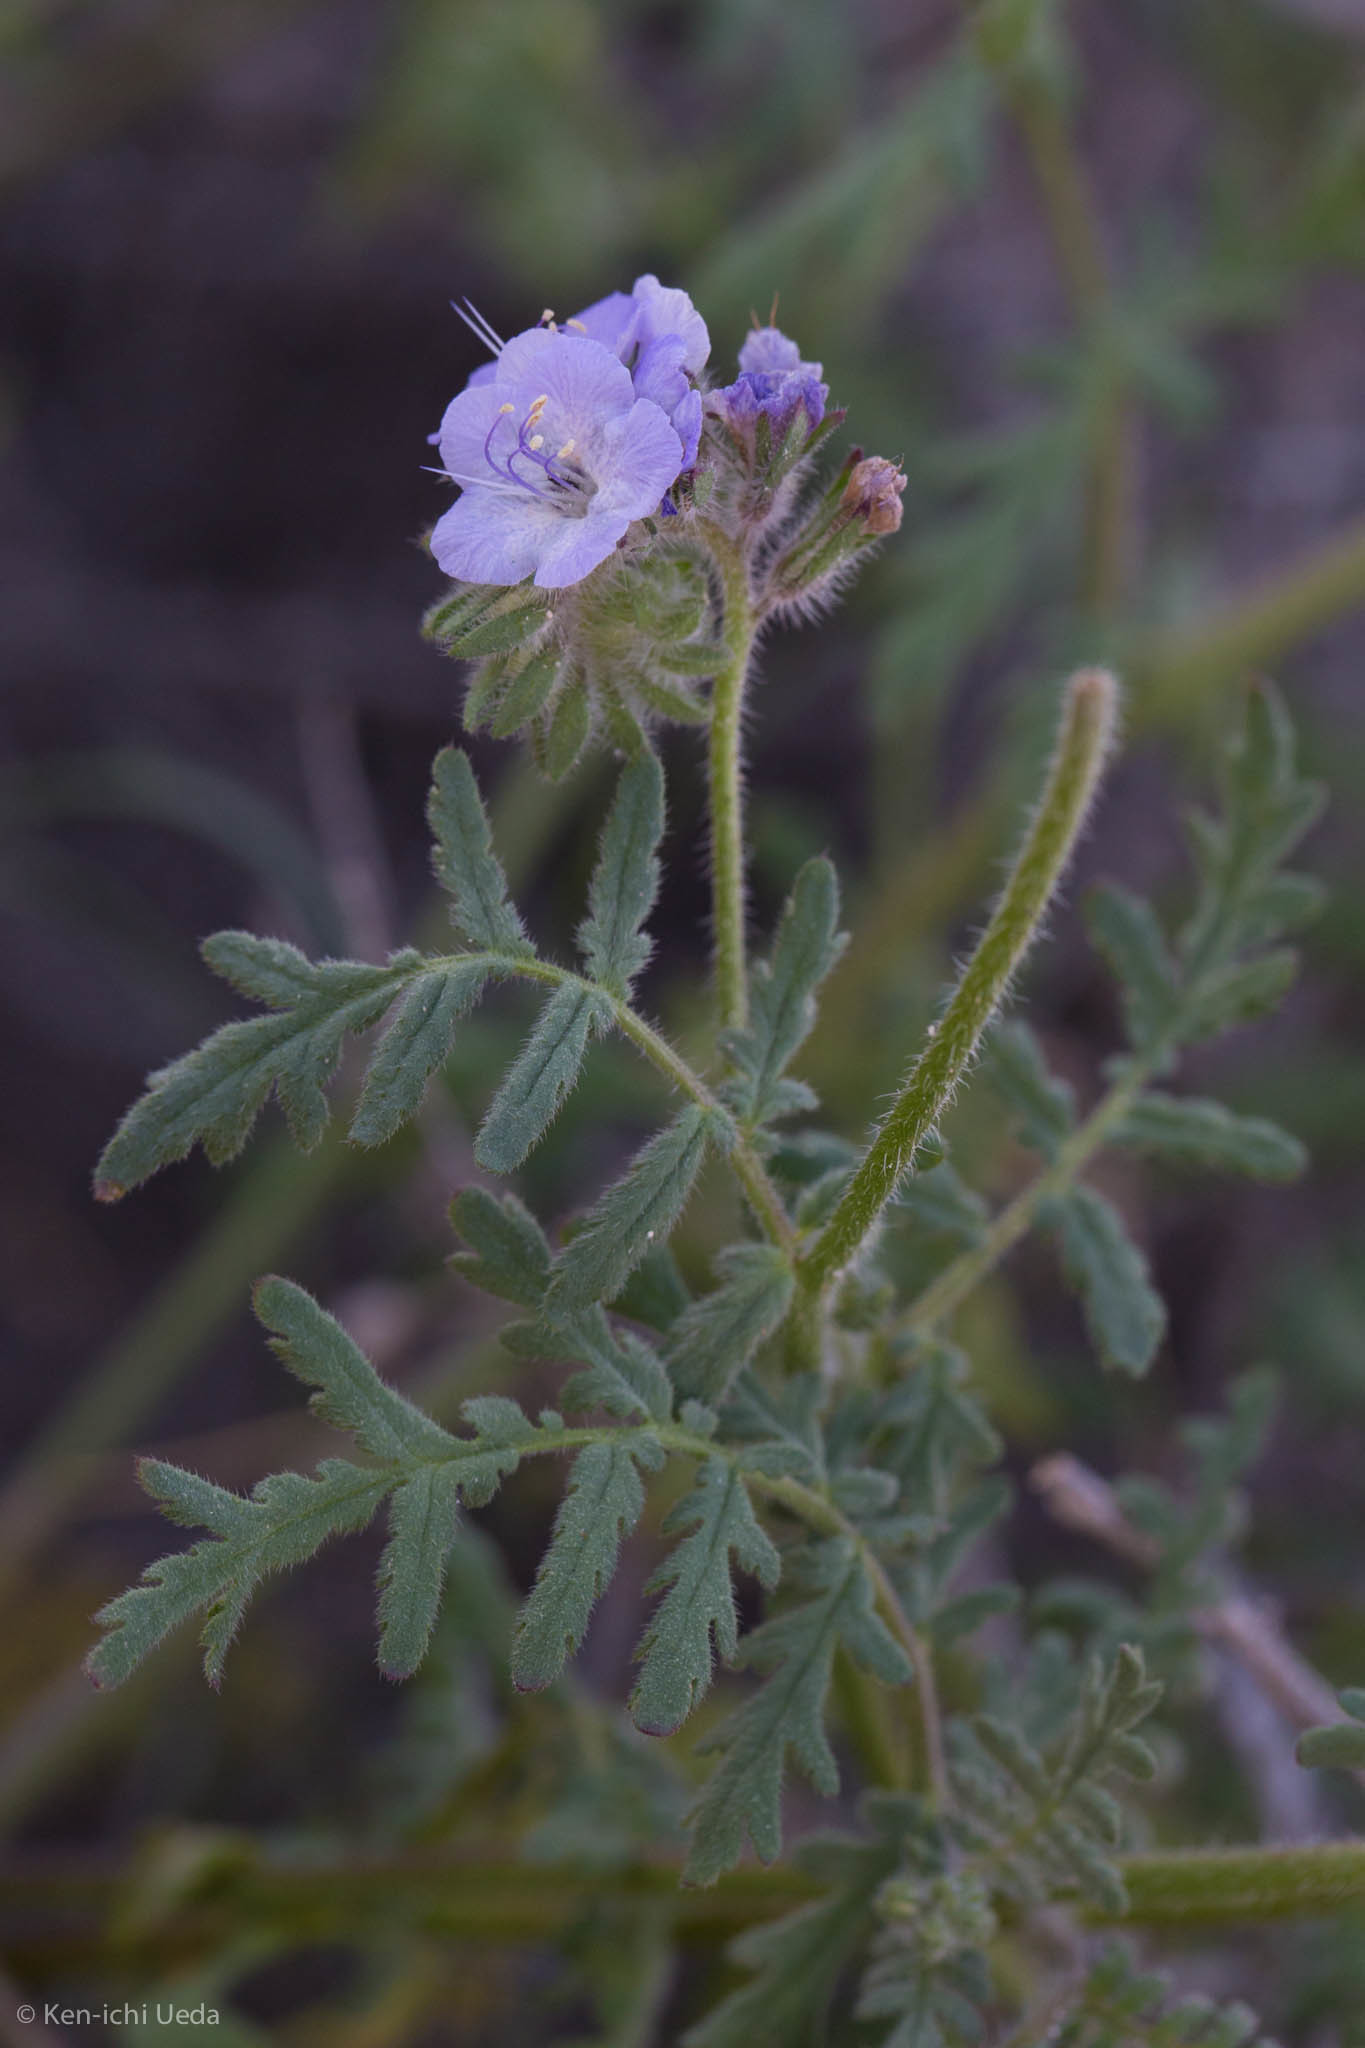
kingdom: Plantae
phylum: Tracheophyta
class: Magnoliopsida
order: Boraginales
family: Hydrophyllaceae
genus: Phacelia
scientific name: Phacelia distans
